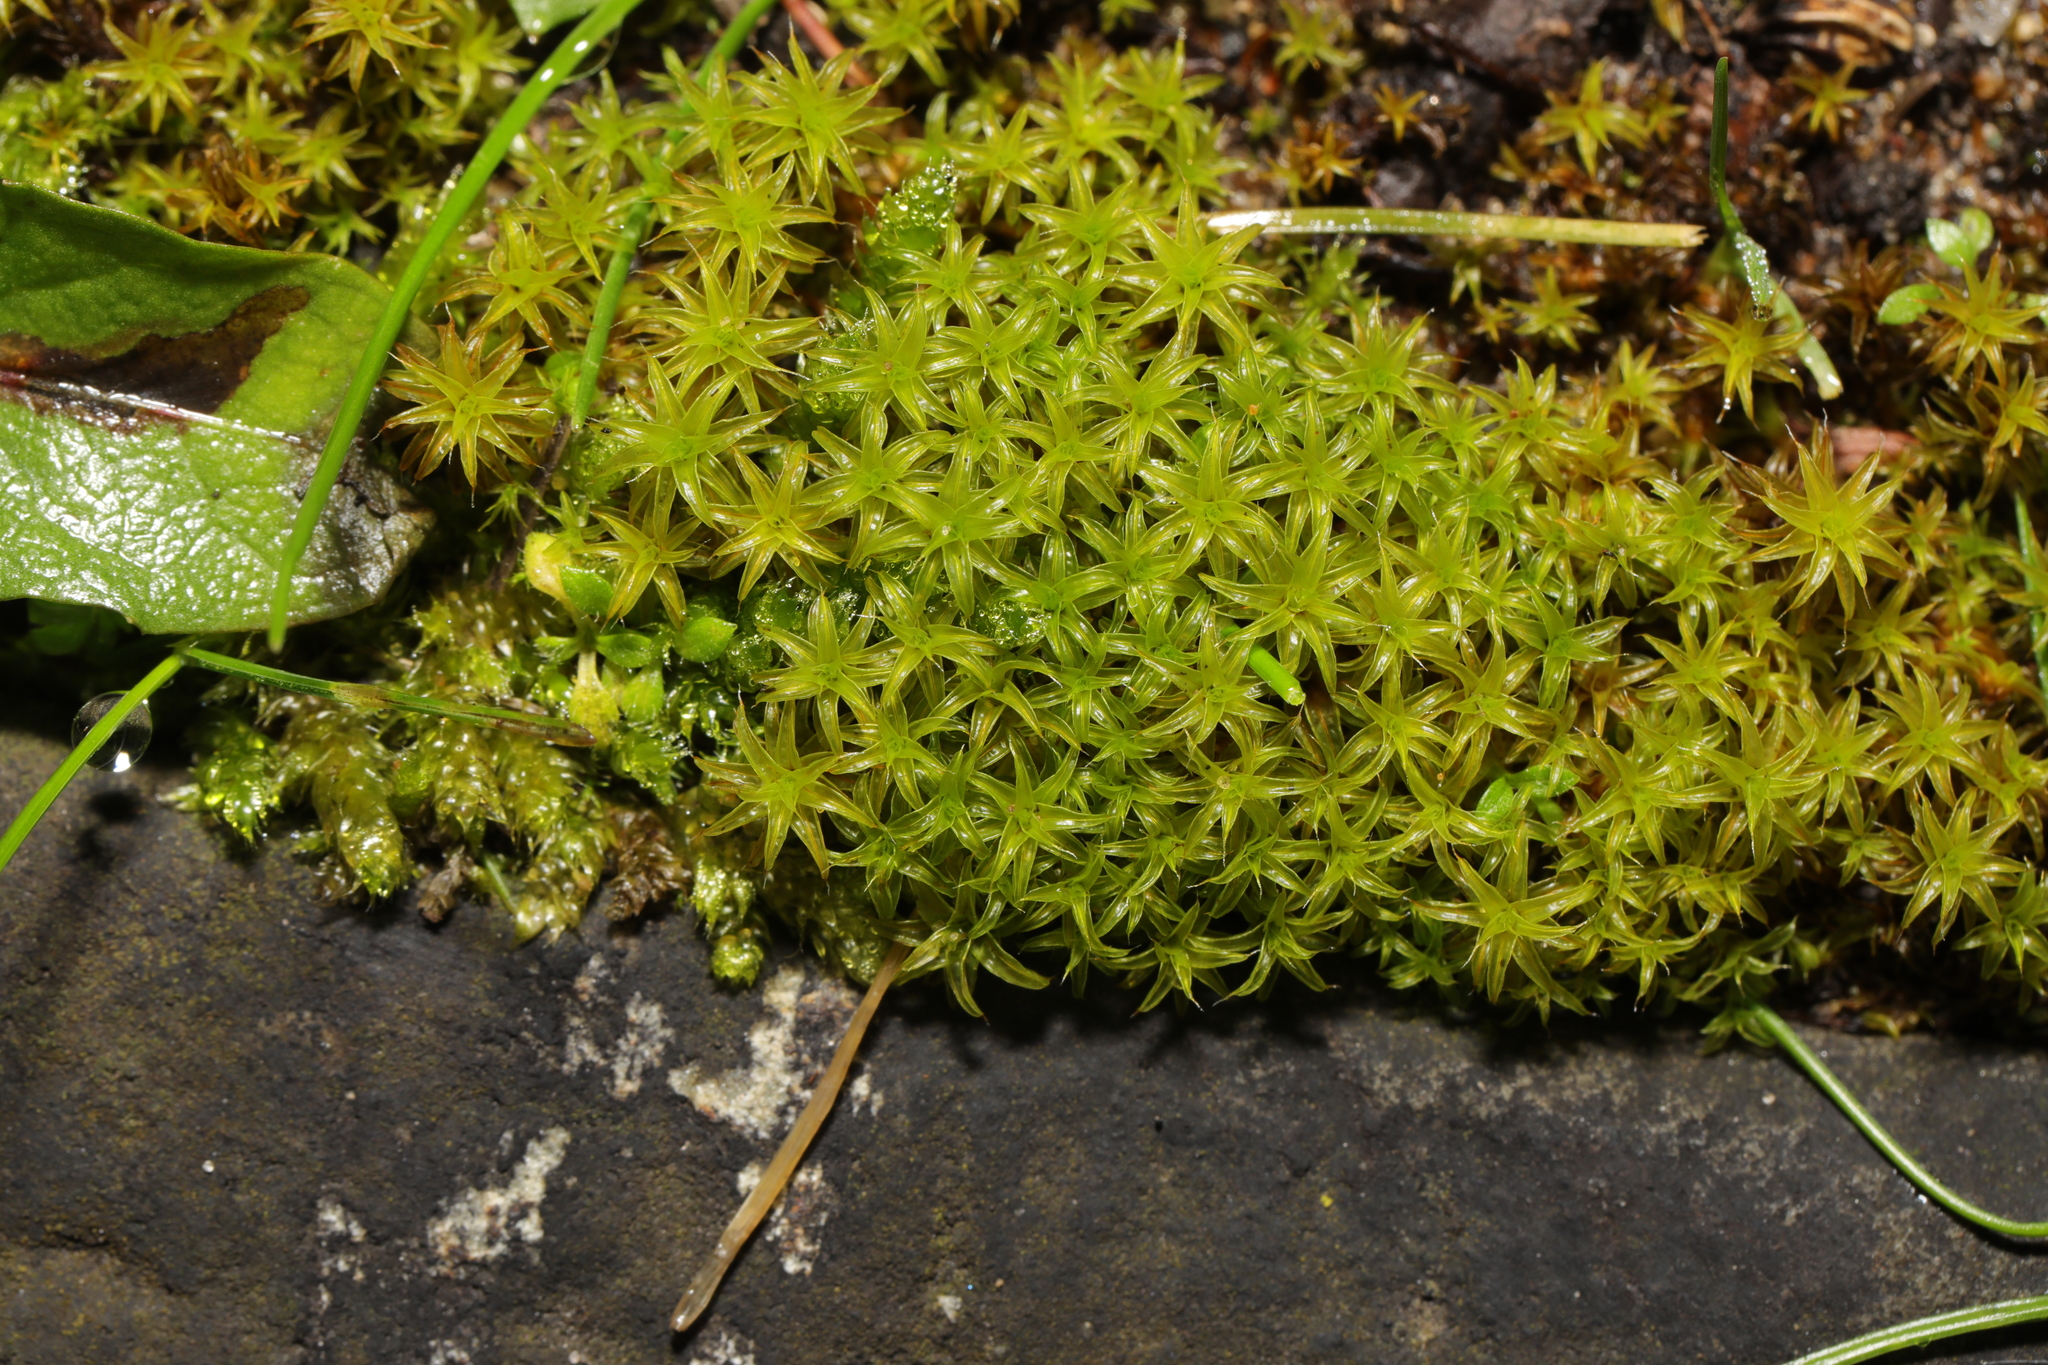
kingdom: Plantae
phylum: Bryophyta
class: Bryopsida
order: Pottiales
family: Pottiaceae
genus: Syntrichia
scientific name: Syntrichia ruralis
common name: Sidewalk screw moss
